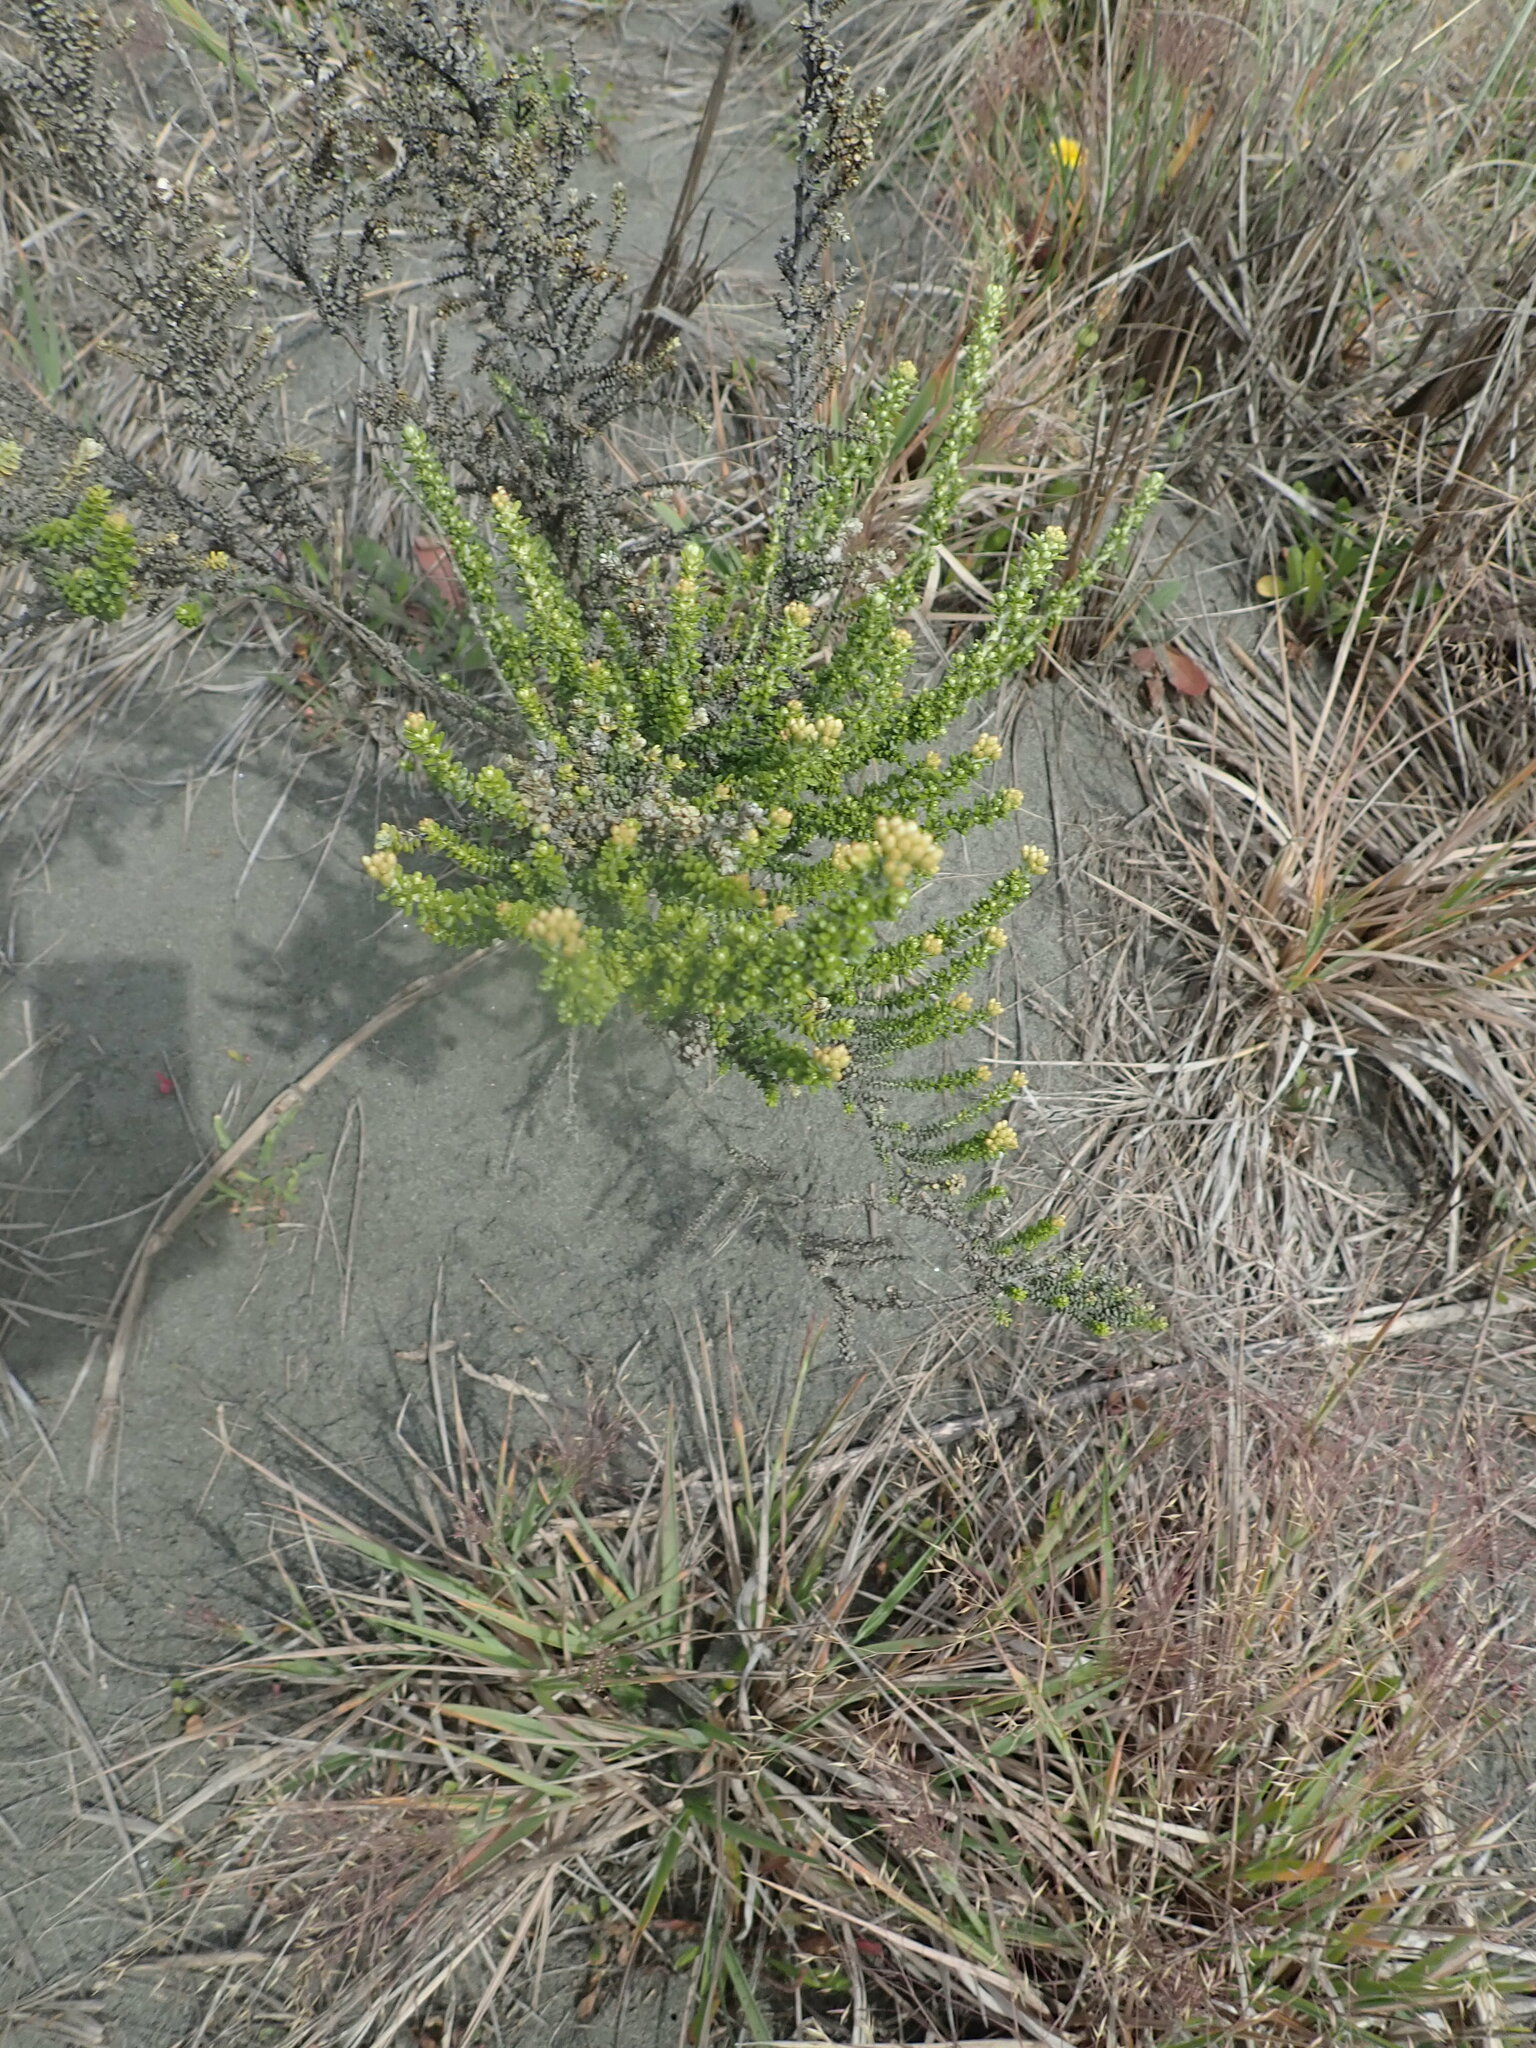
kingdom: Plantae
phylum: Tracheophyta
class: Magnoliopsida
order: Asterales
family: Asteraceae
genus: Ozothamnus
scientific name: Ozothamnus leptophyllus
